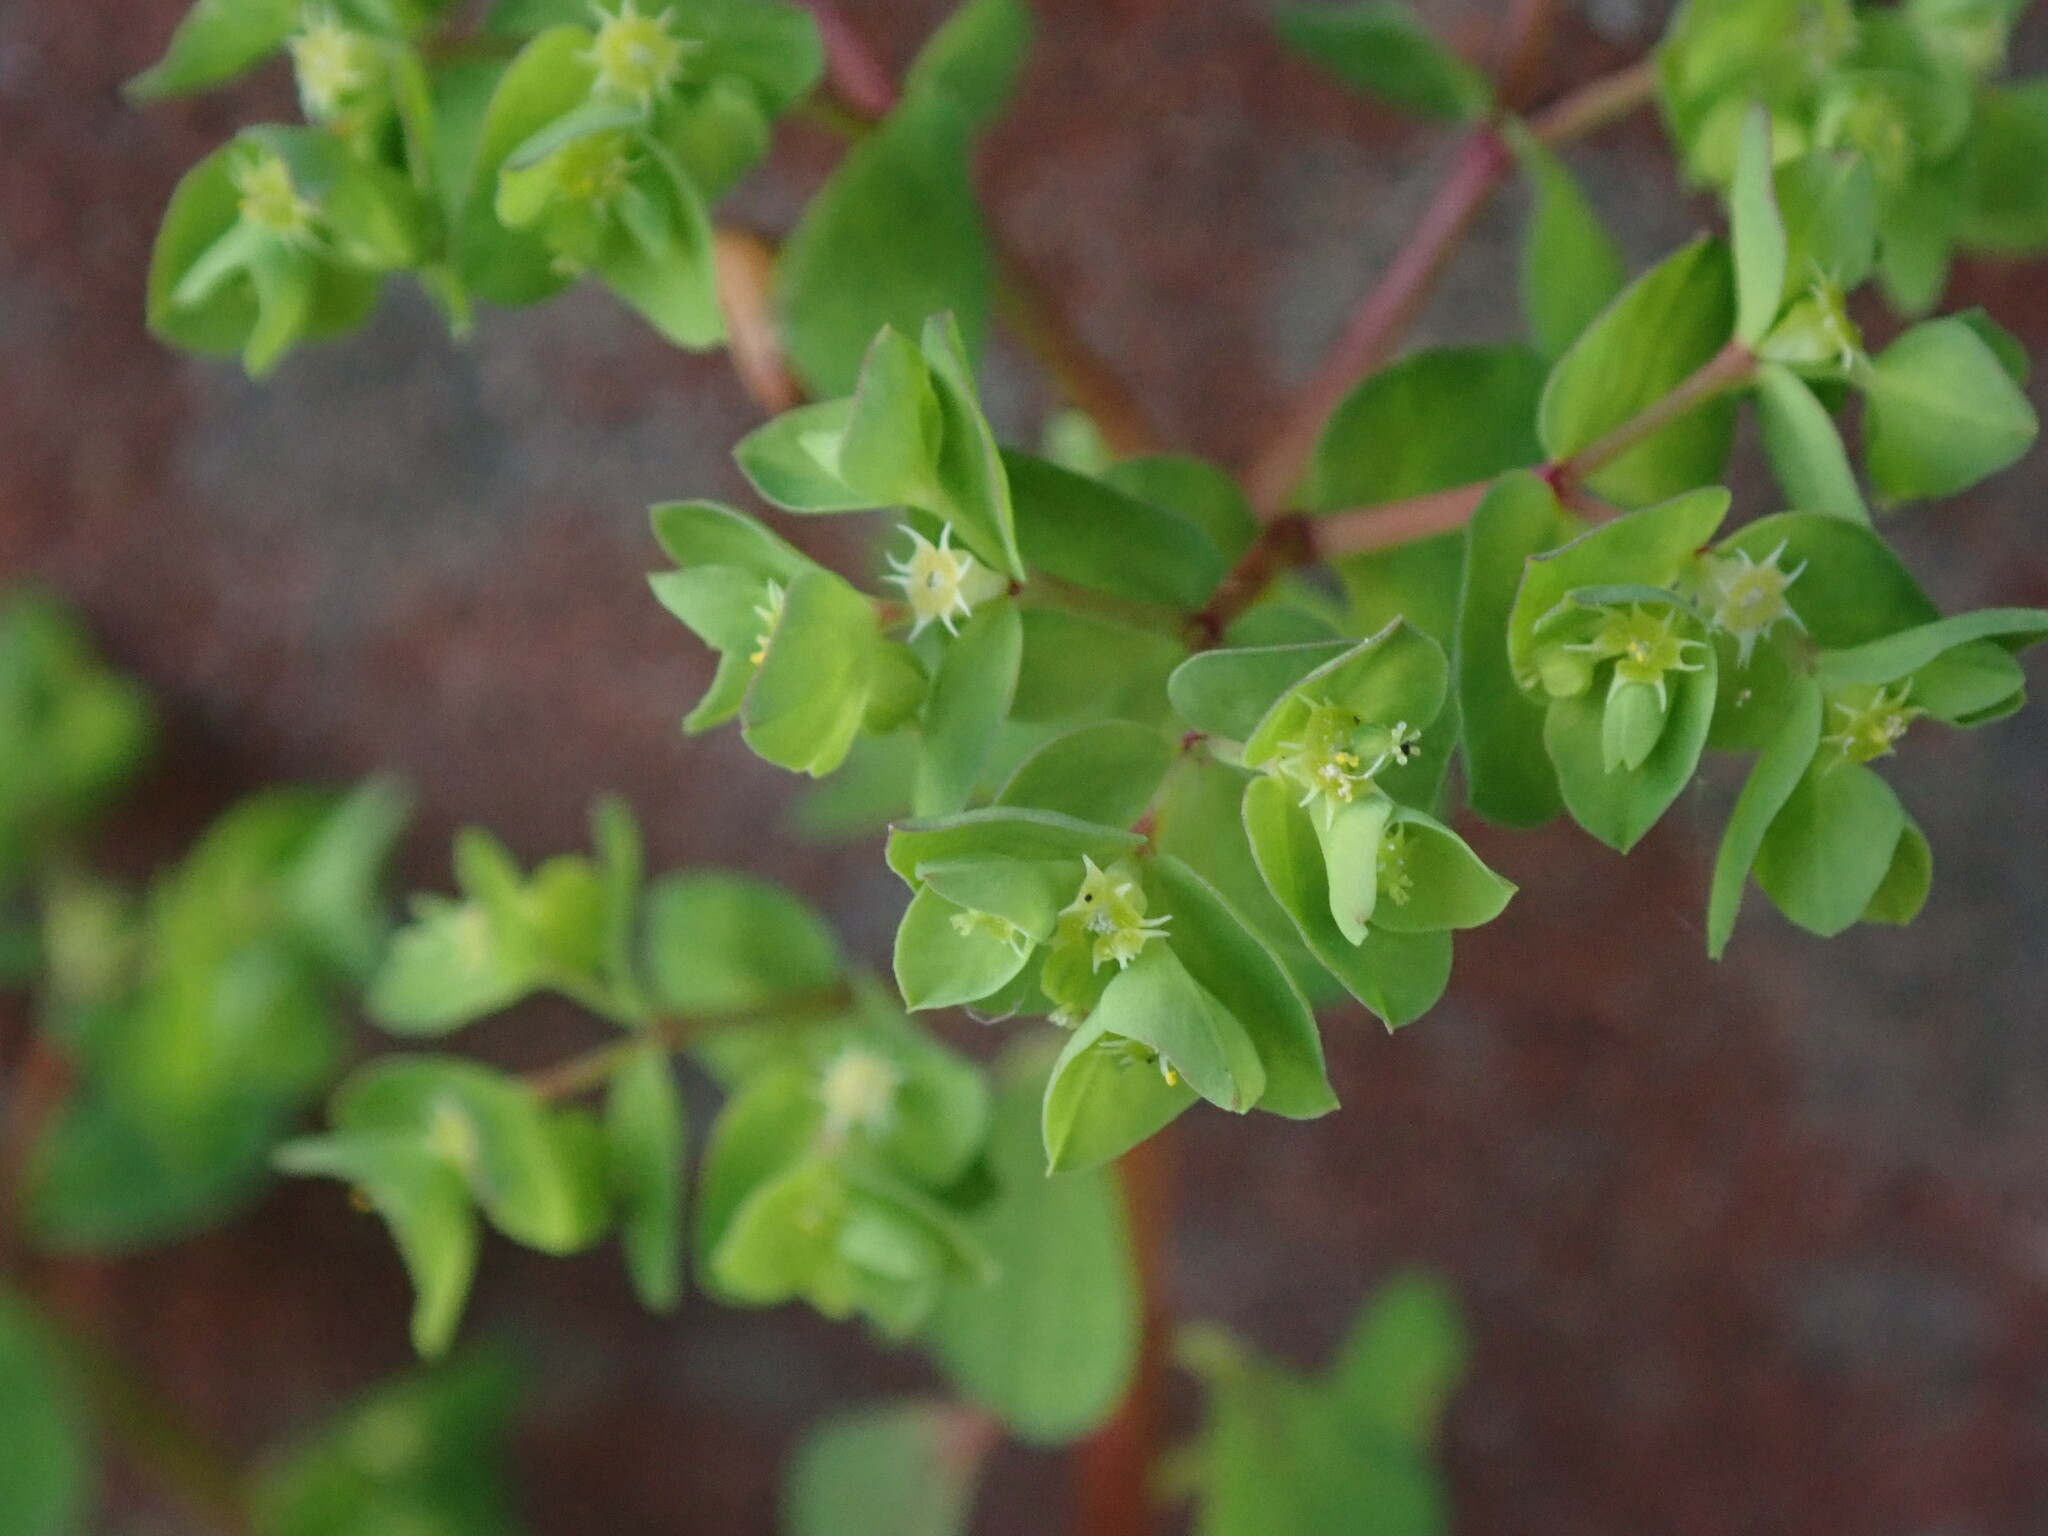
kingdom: Plantae
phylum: Tracheophyta
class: Magnoliopsida
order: Malpighiales
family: Euphorbiaceae
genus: Euphorbia
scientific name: Euphorbia peplus
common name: Petty spurge
